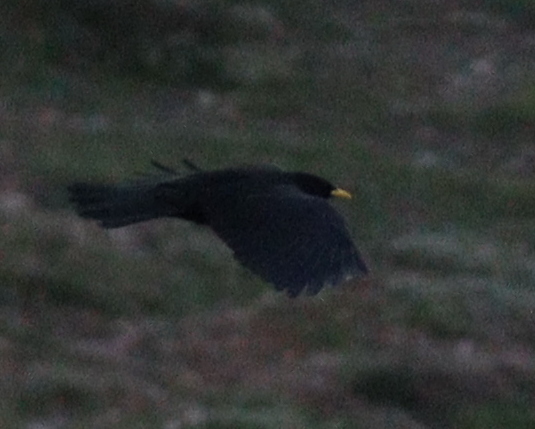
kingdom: Animalia
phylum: Chordata
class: Aves
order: Passeriformes
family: Corvidae
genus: Pyrrhocorax
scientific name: Pyrrhocorax graculus
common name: Alpine chough
